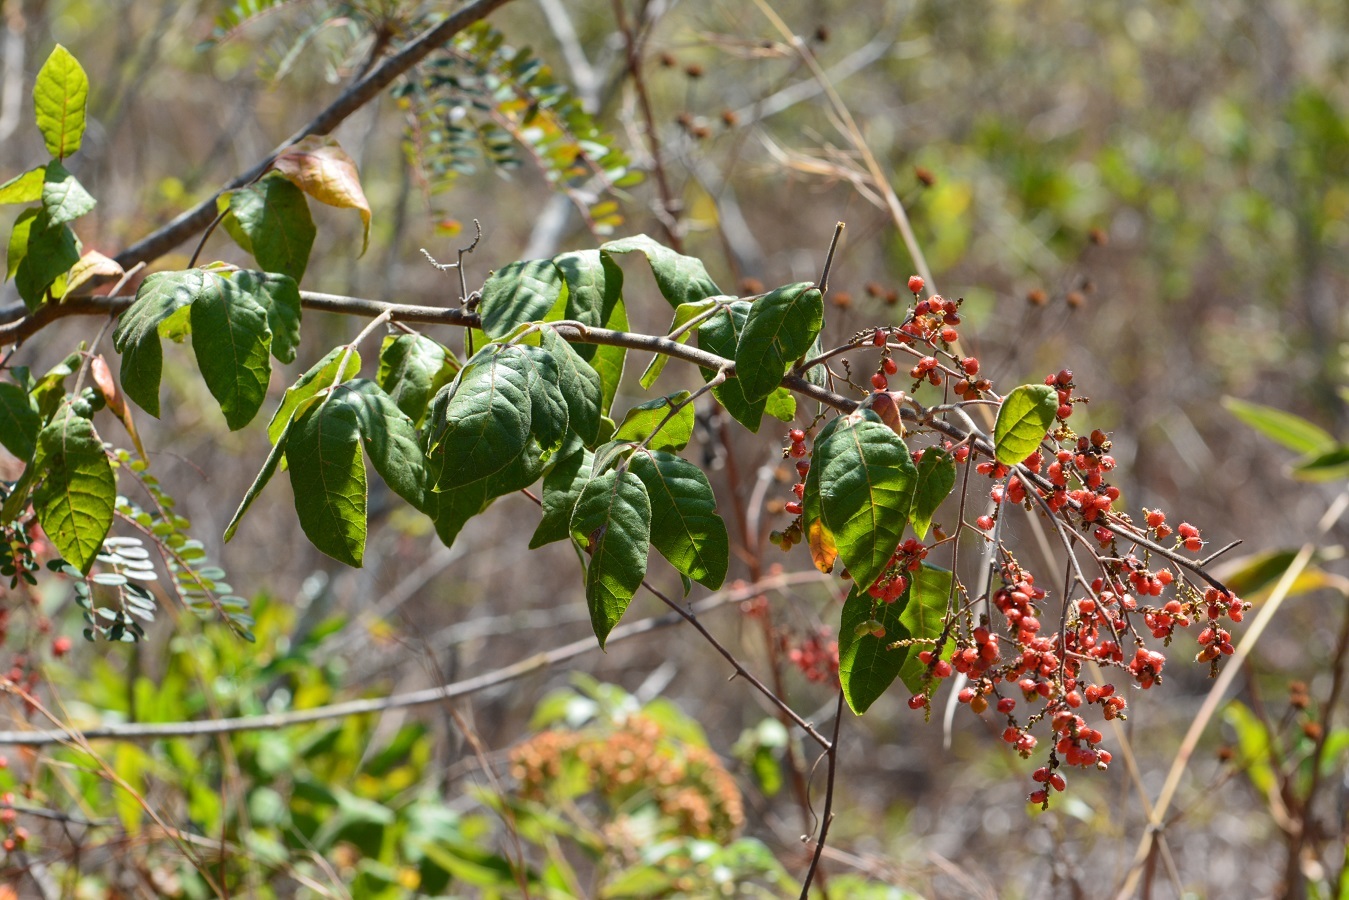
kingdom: Plantae
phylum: Tracheophyta
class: Magnoliopsida
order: Sapindales
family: Anacardiaceae
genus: Rhus
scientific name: Rhus terebinthifolia
